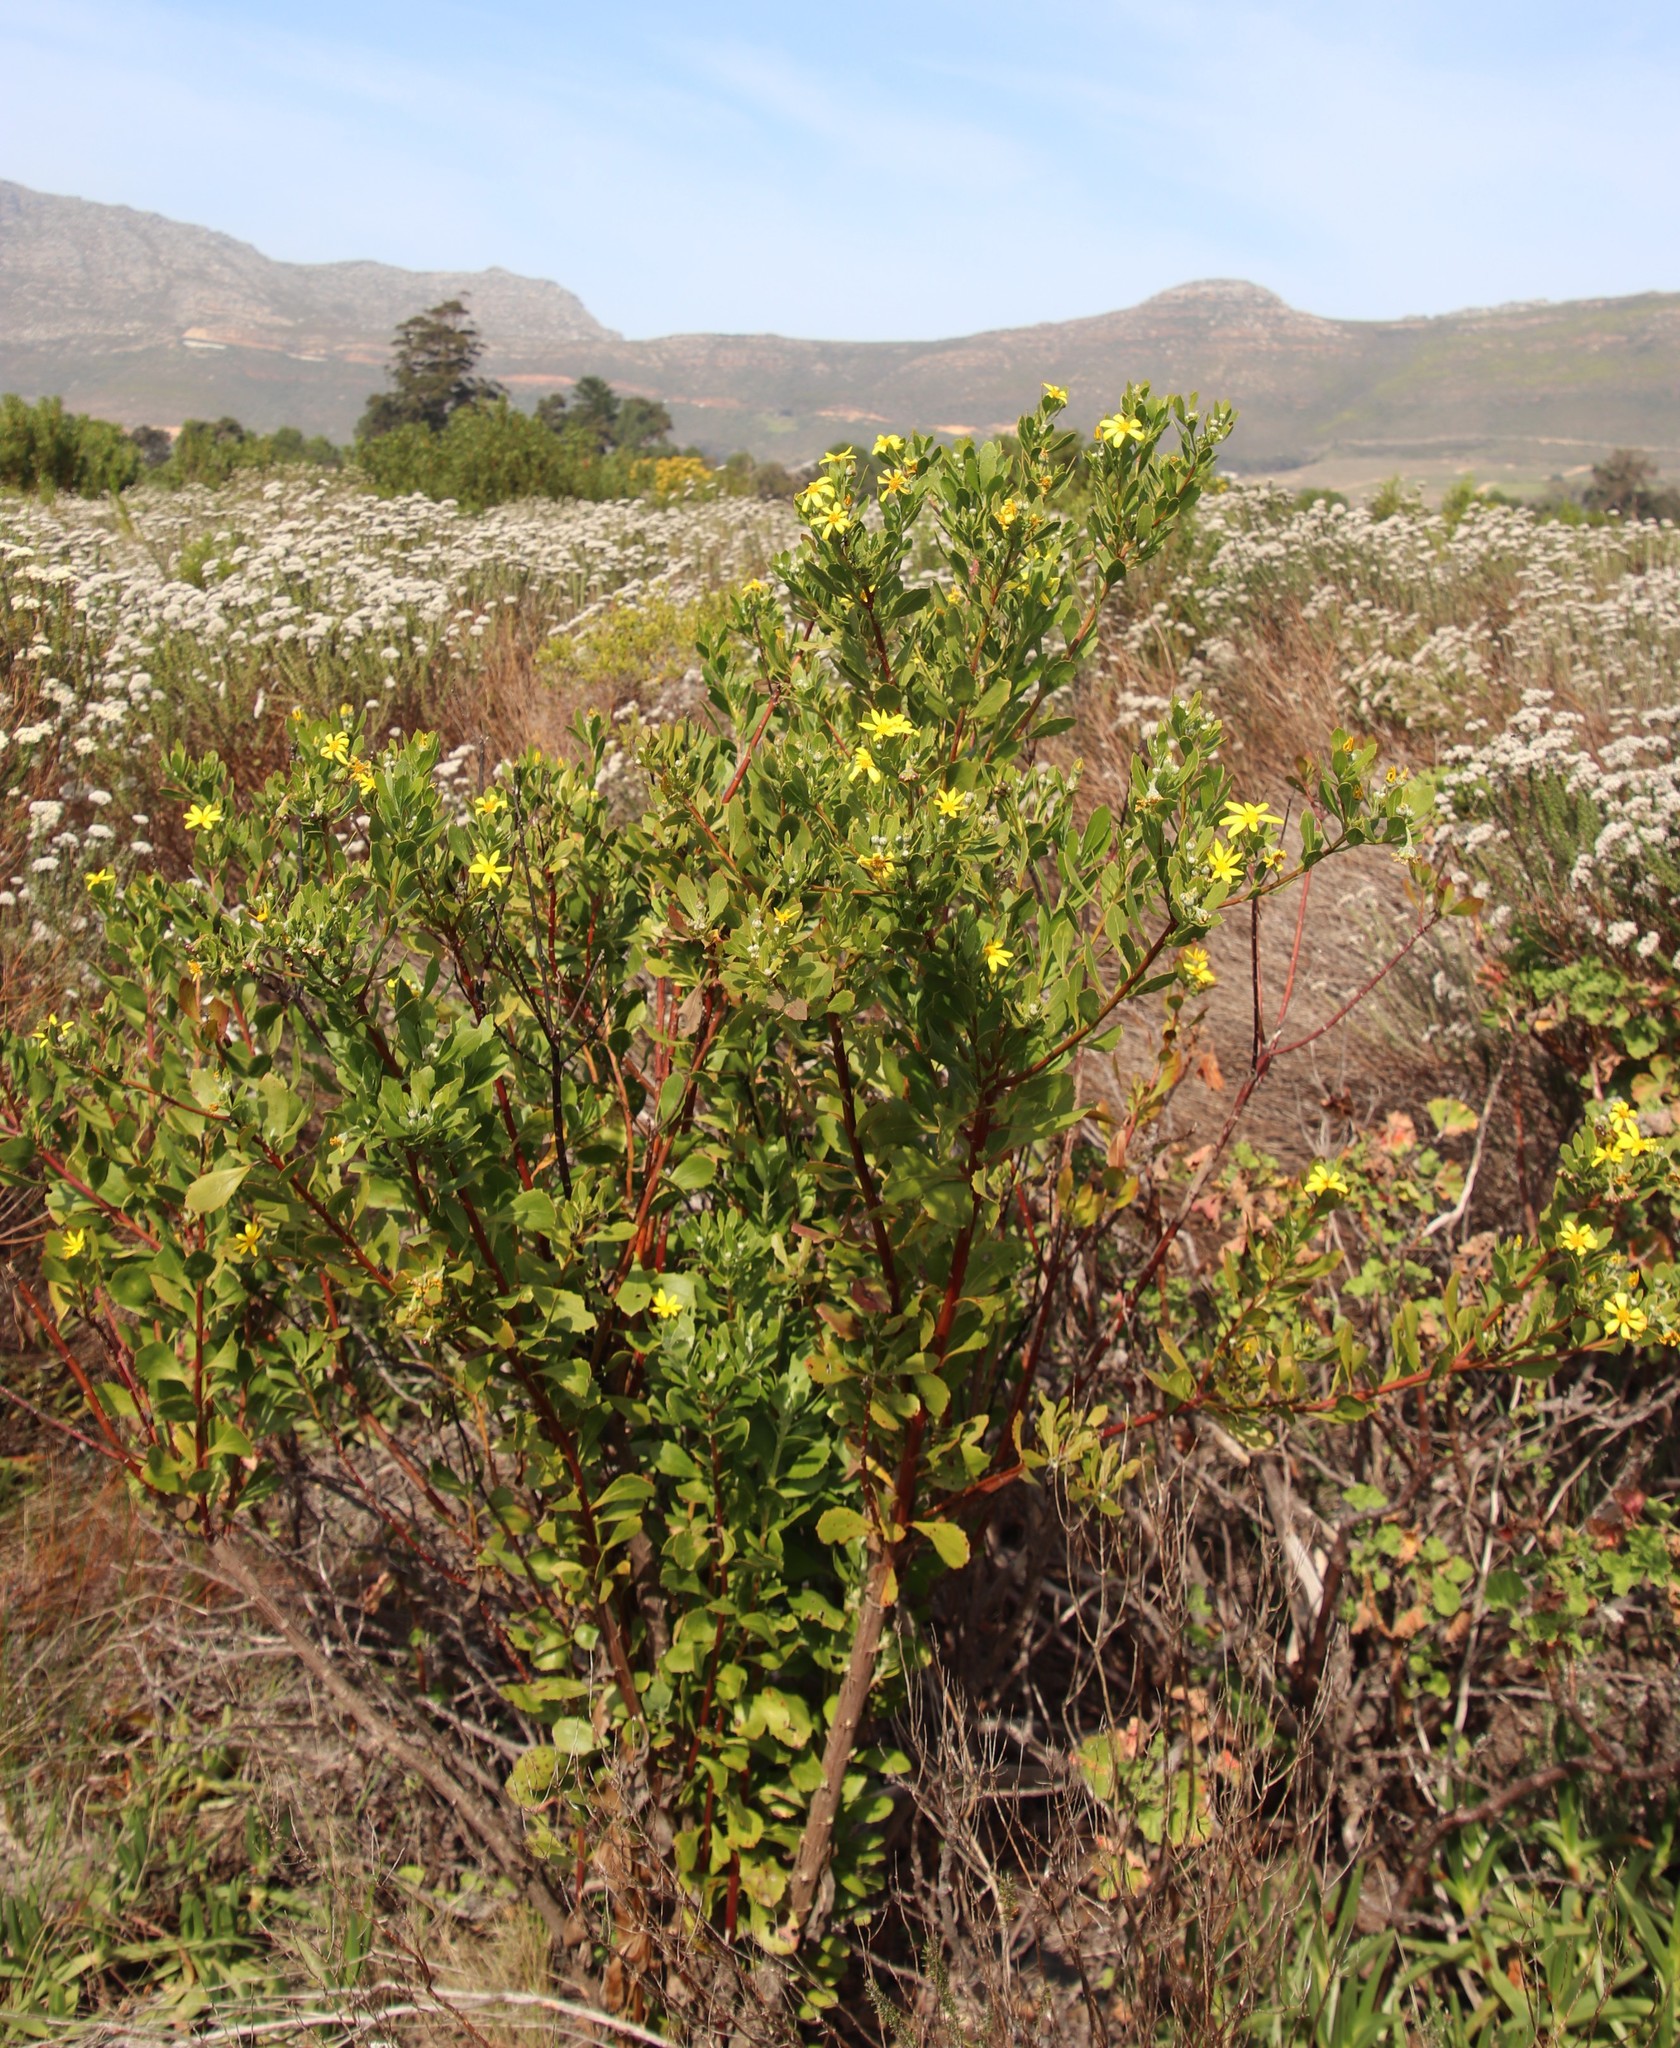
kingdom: Plantae
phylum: Tracheophyta
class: Magnoliopsida
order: Asterales
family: Asteraceae
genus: Osteospermum
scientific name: Osteospermum moniliferum
